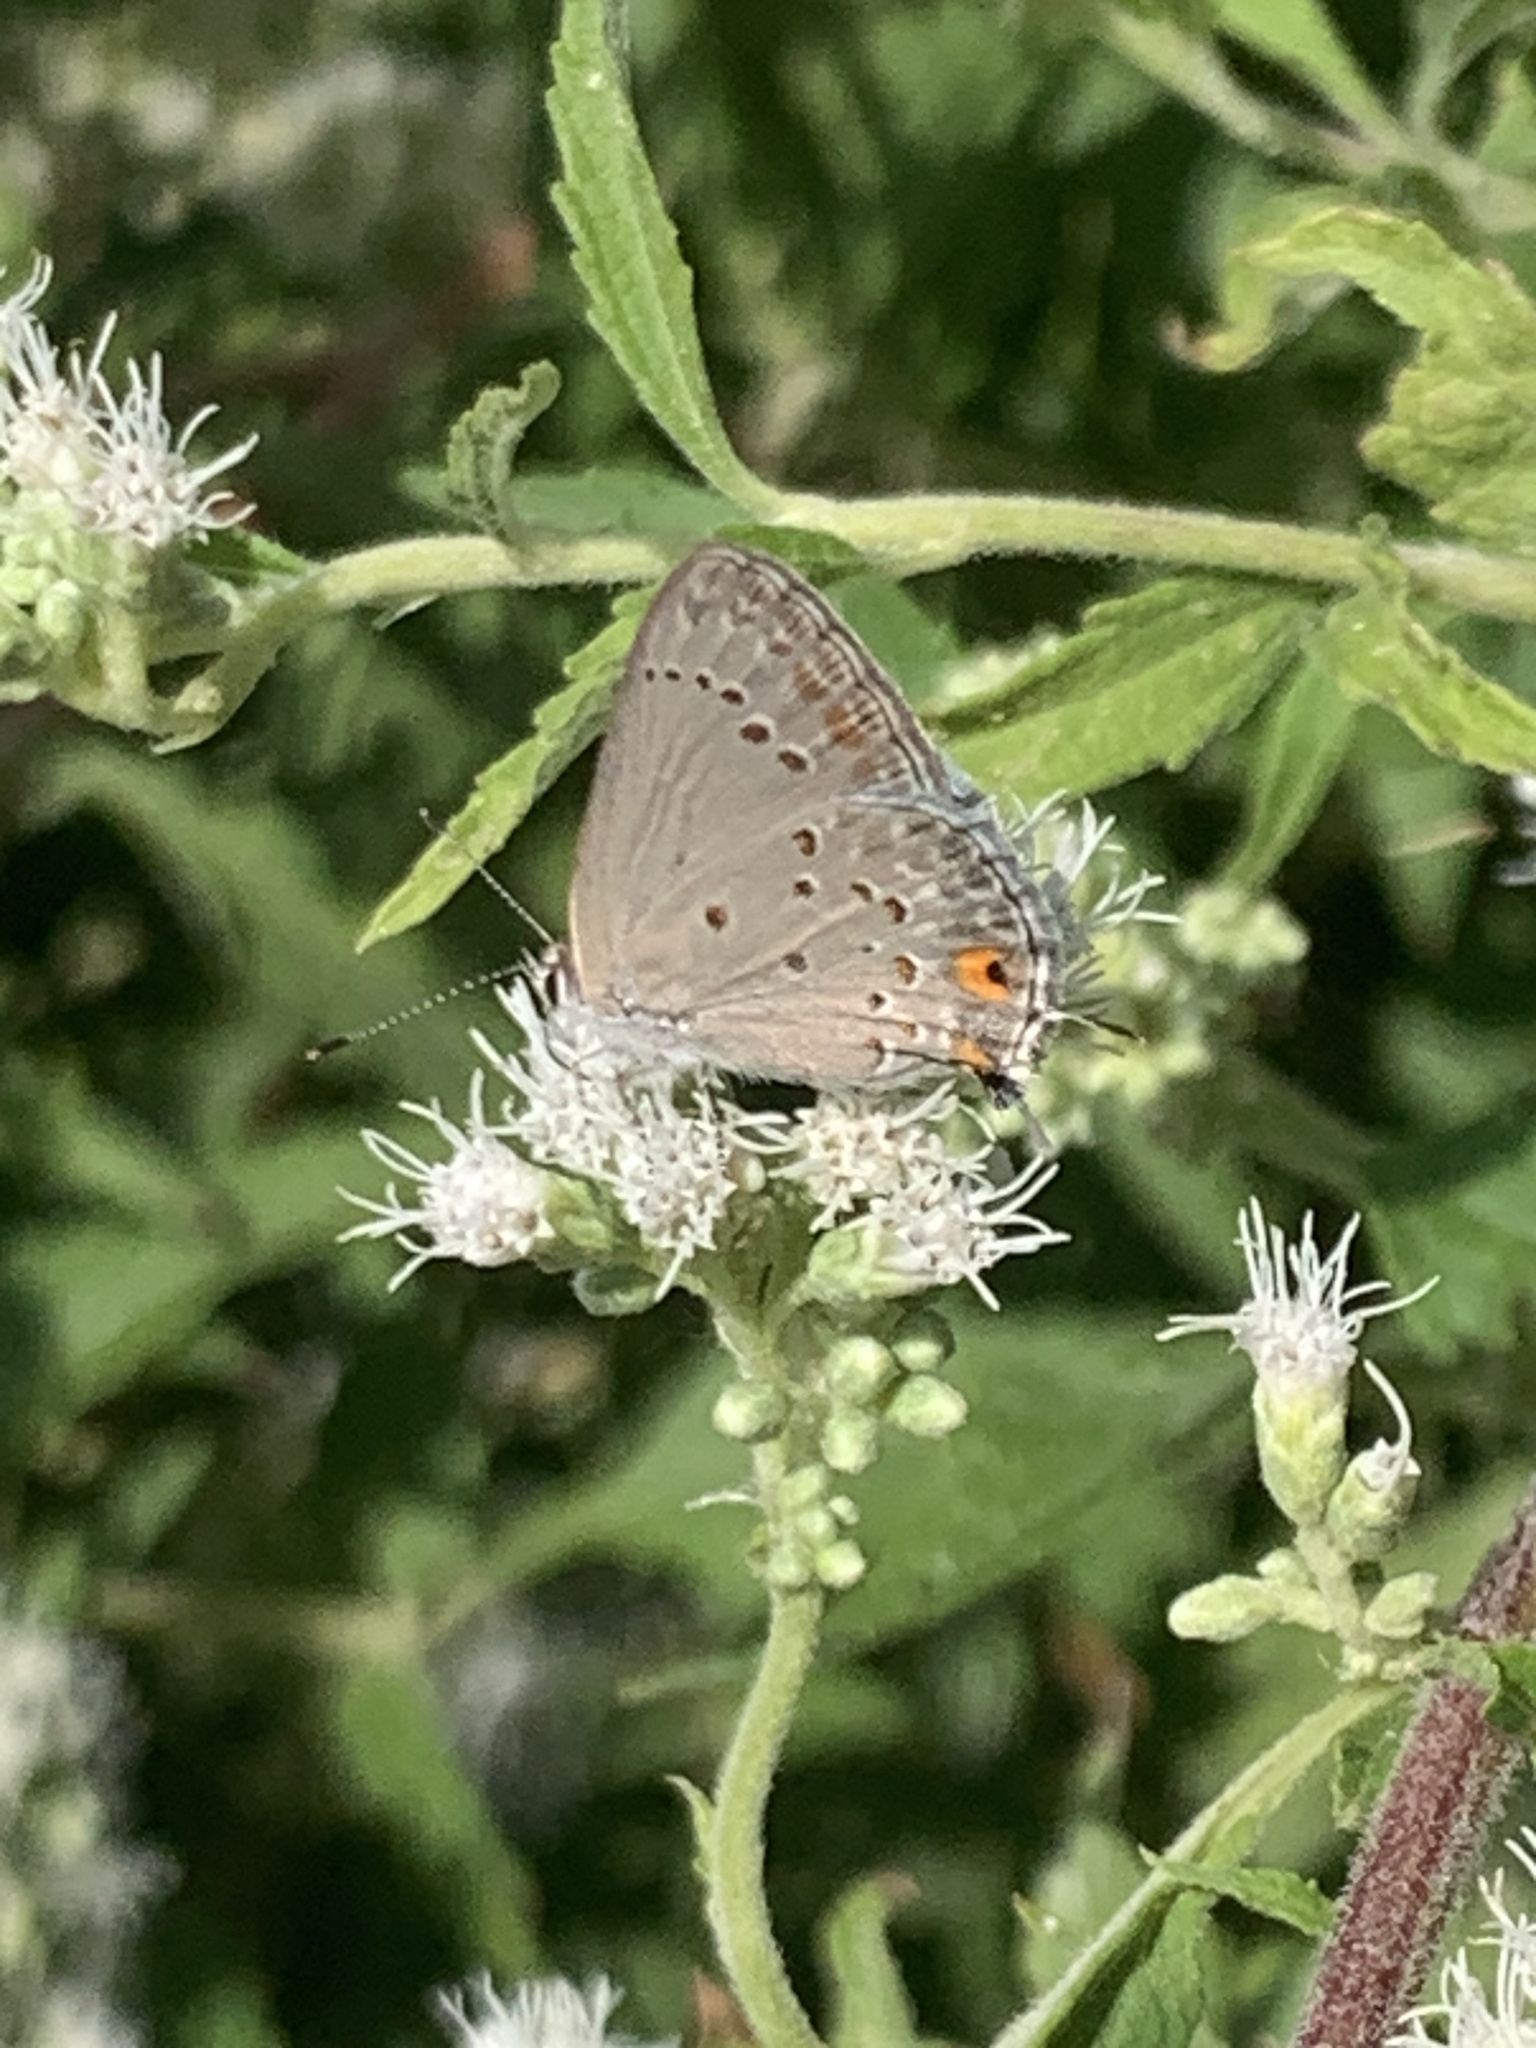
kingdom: Animalia
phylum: Arthropoda
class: Insecta
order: Lepidoptera
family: Lycaenidae
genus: Strymon
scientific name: Strymon eurytulus
